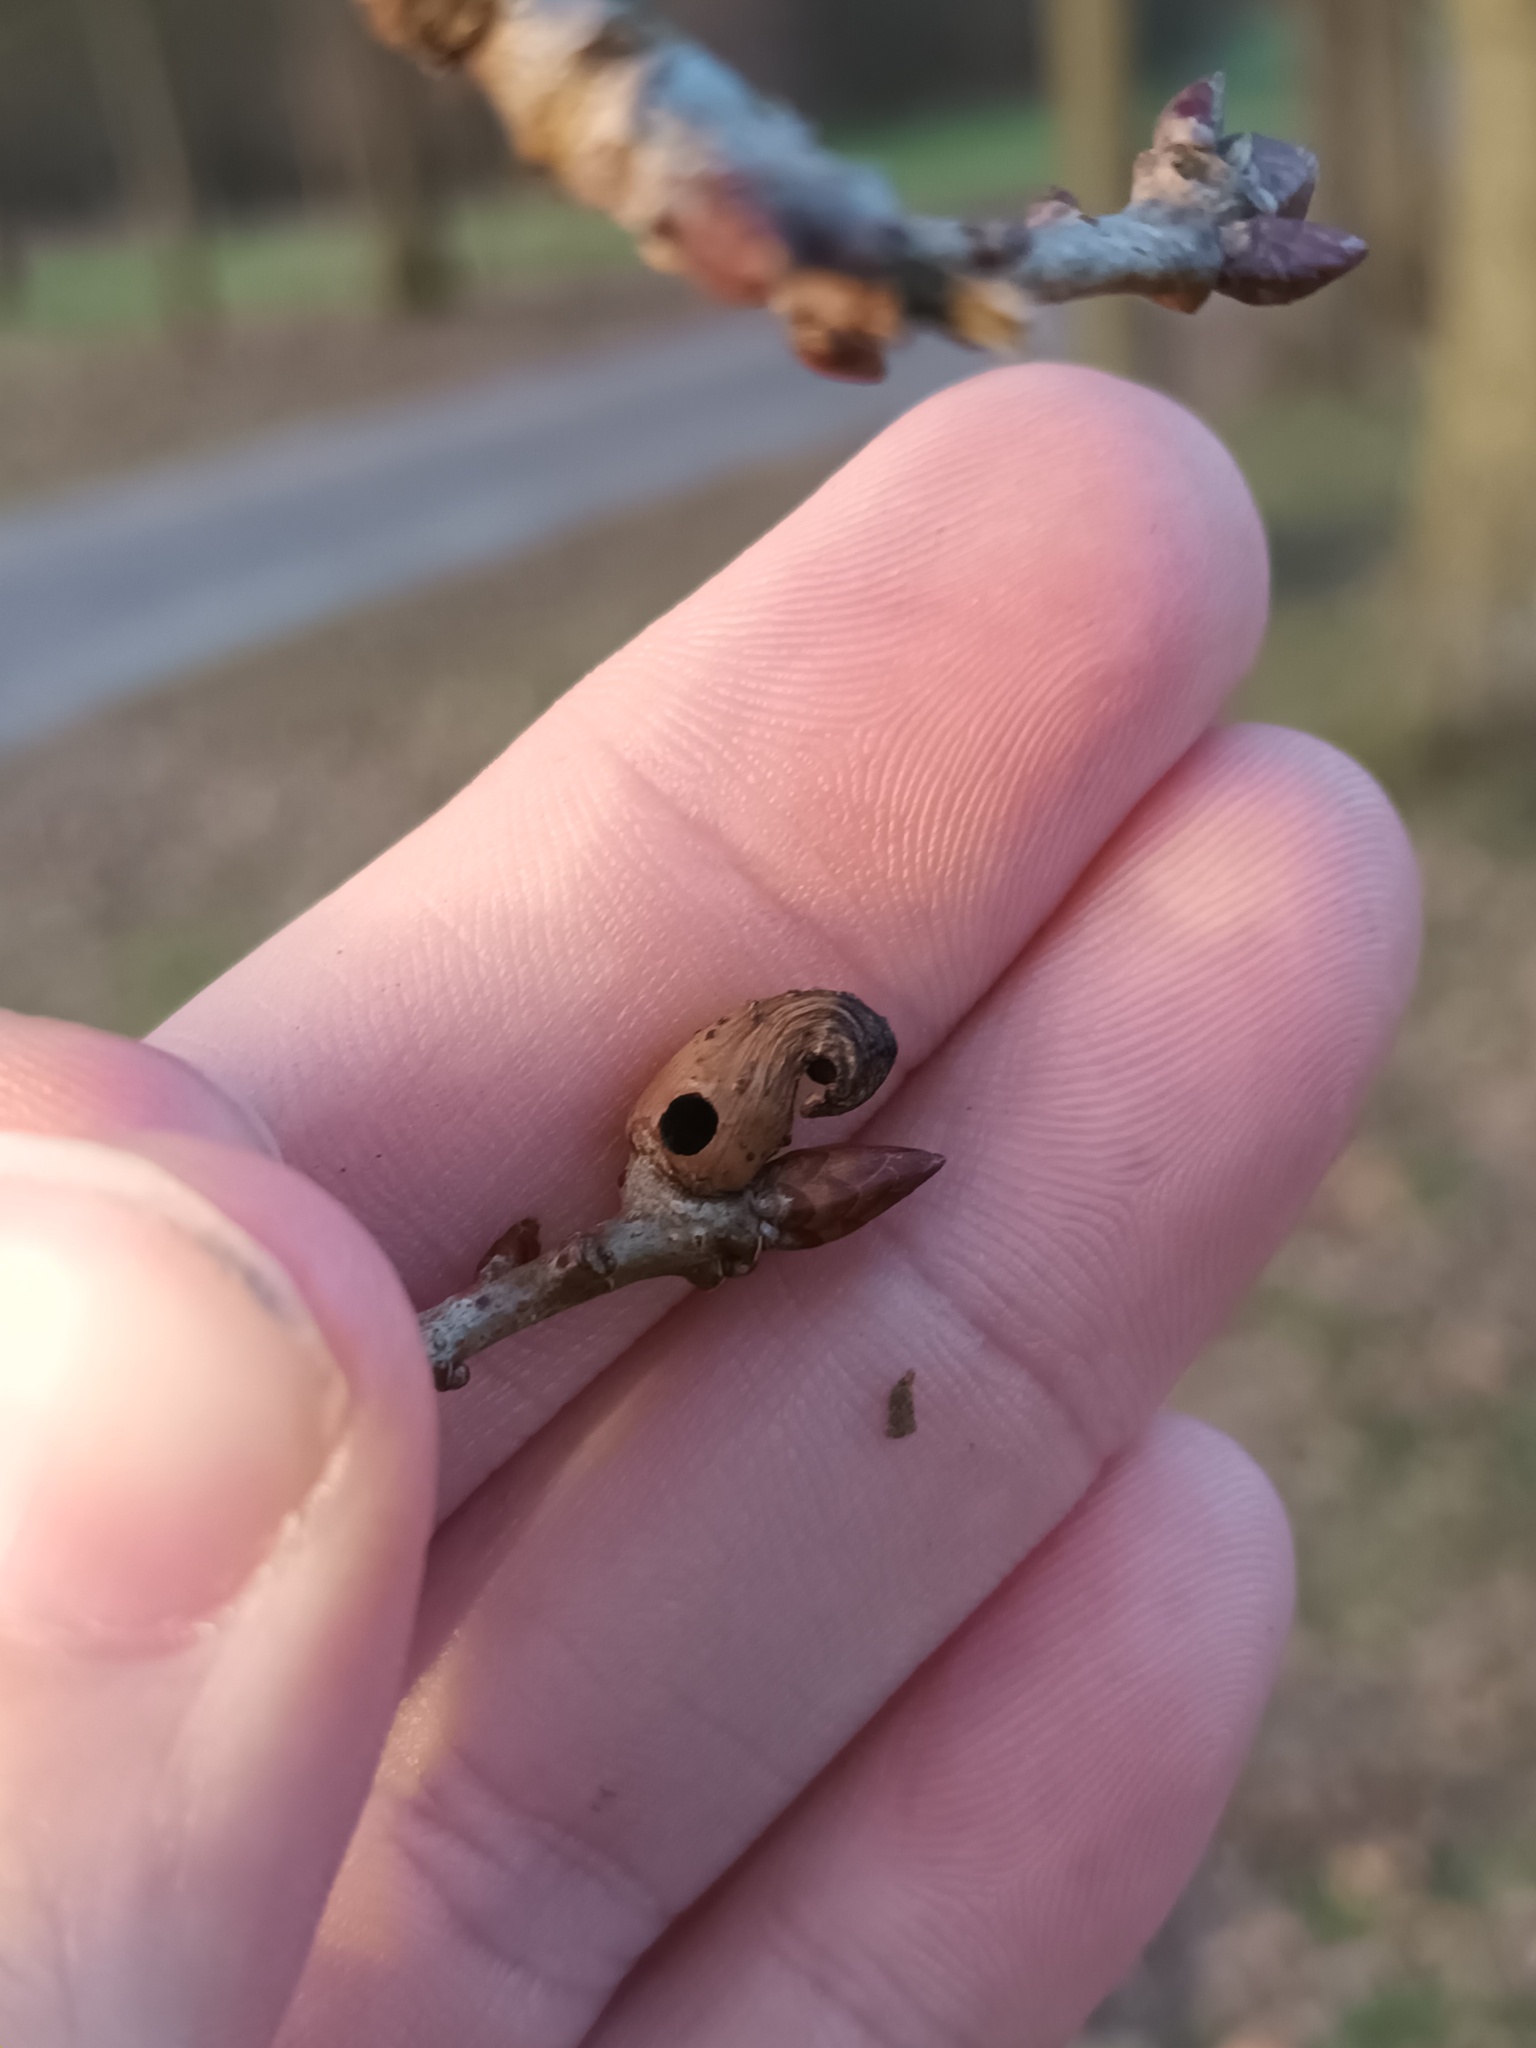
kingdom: Animalia
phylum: Arthropoda
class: Insecta
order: Hymenoptera
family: Cynipidae
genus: Andricus
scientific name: Andricus aries
